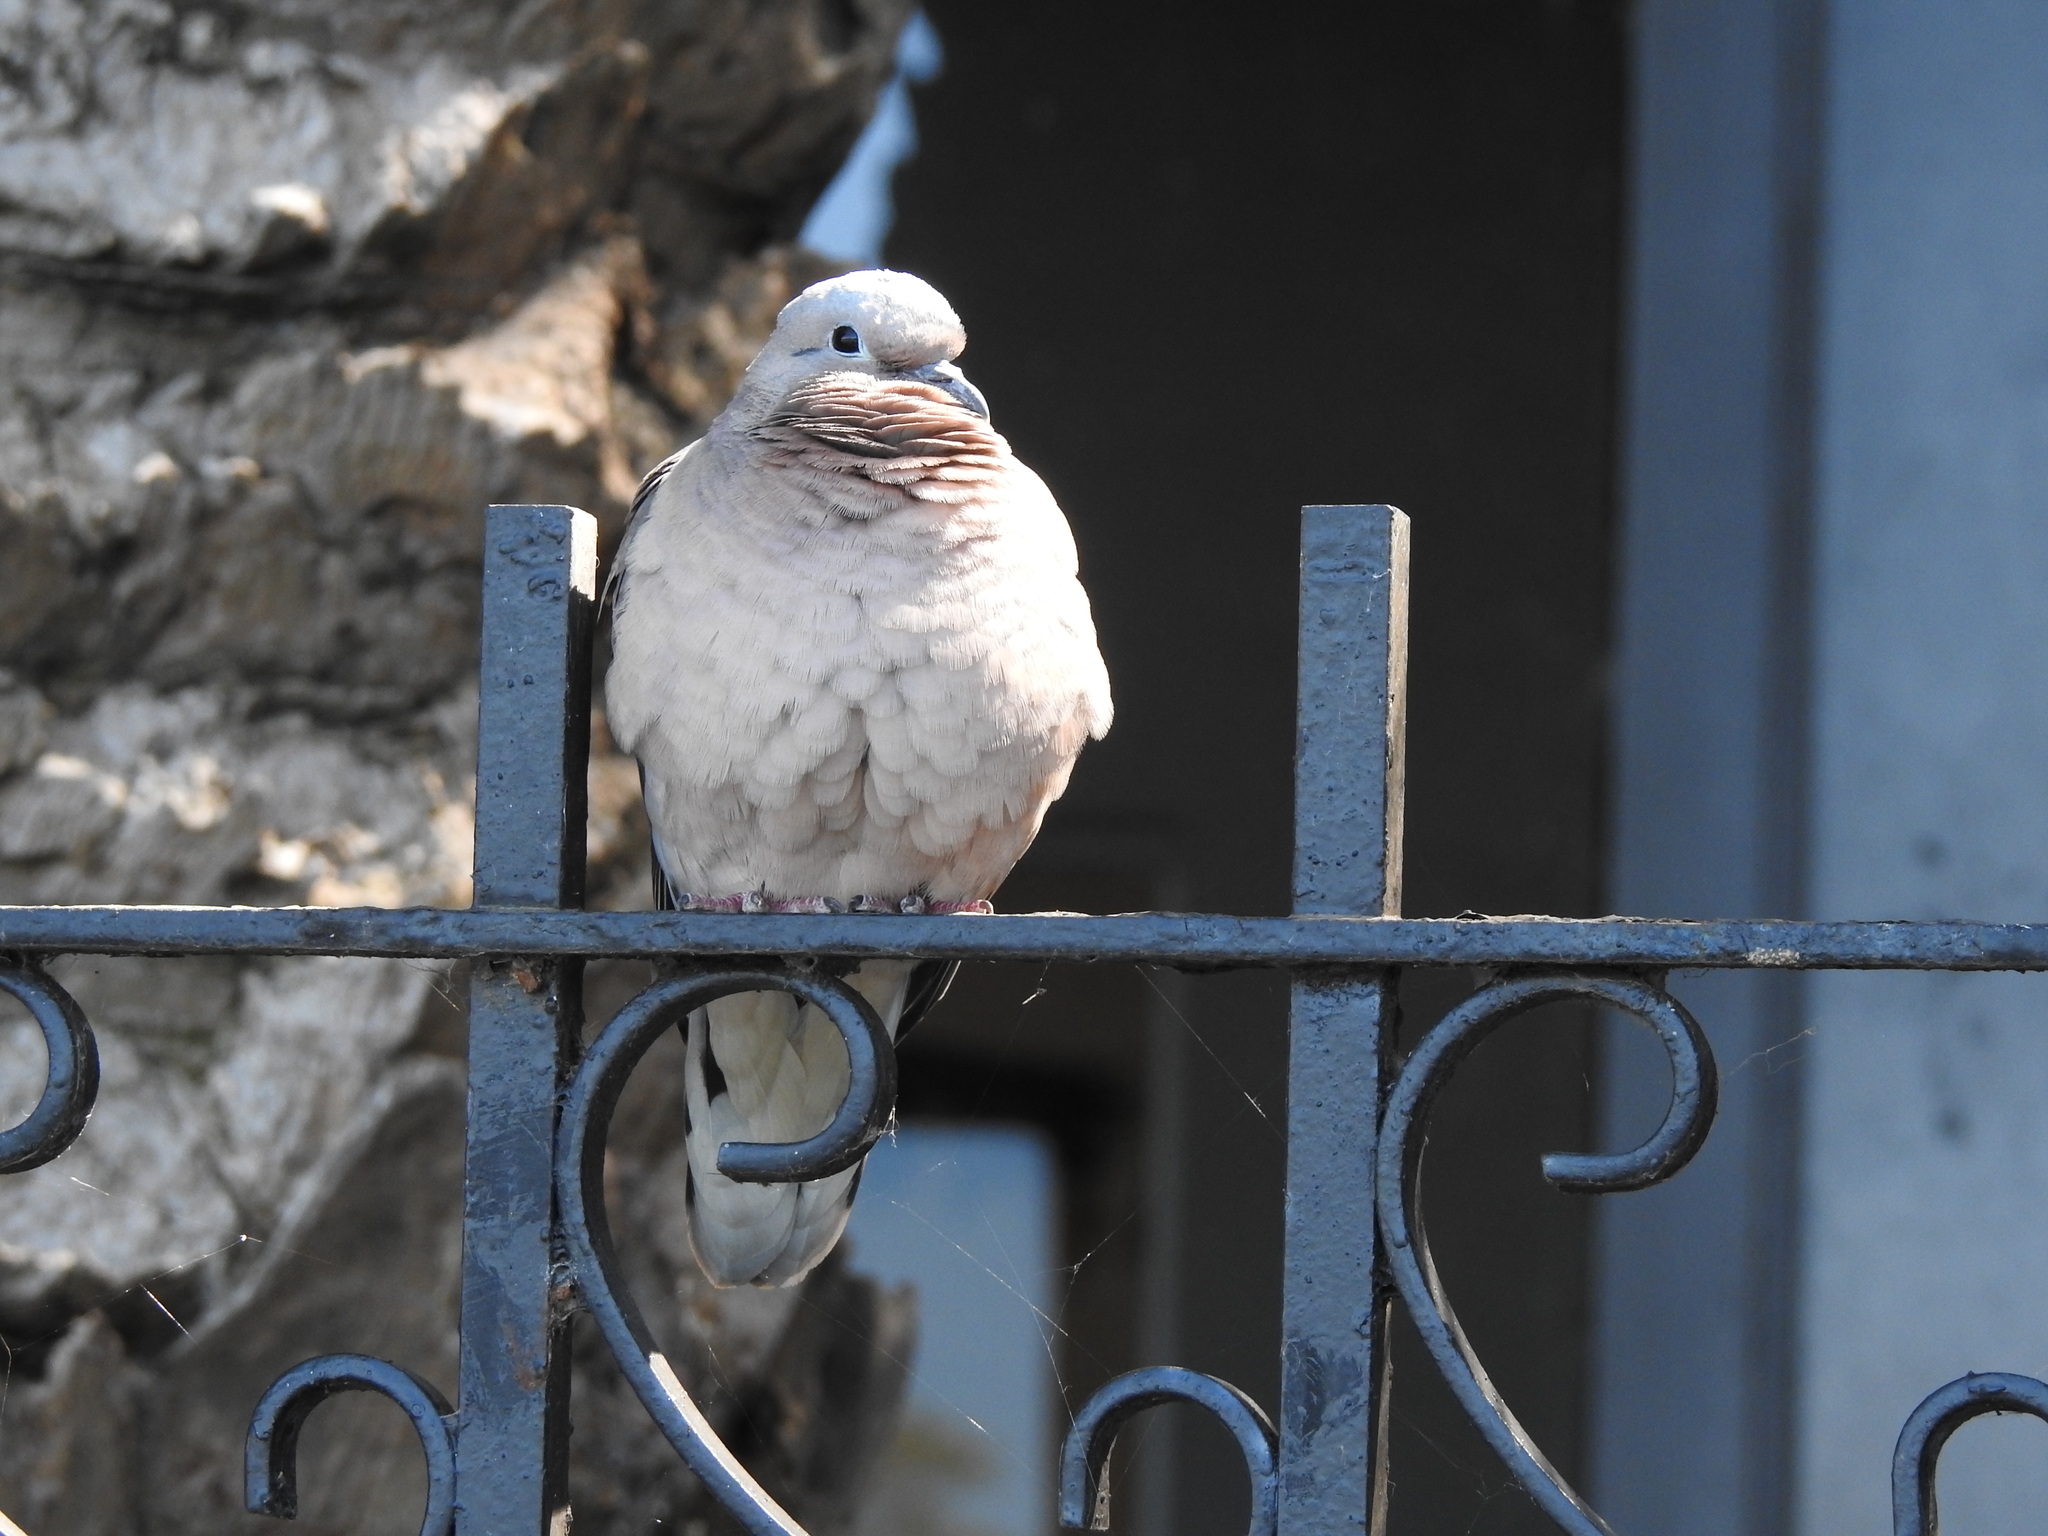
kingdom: Animalia
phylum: Chordata
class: Aves
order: Columbiformes
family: Columbidae
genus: Zenaida
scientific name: Zenaida auriculata
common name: Eared dove
